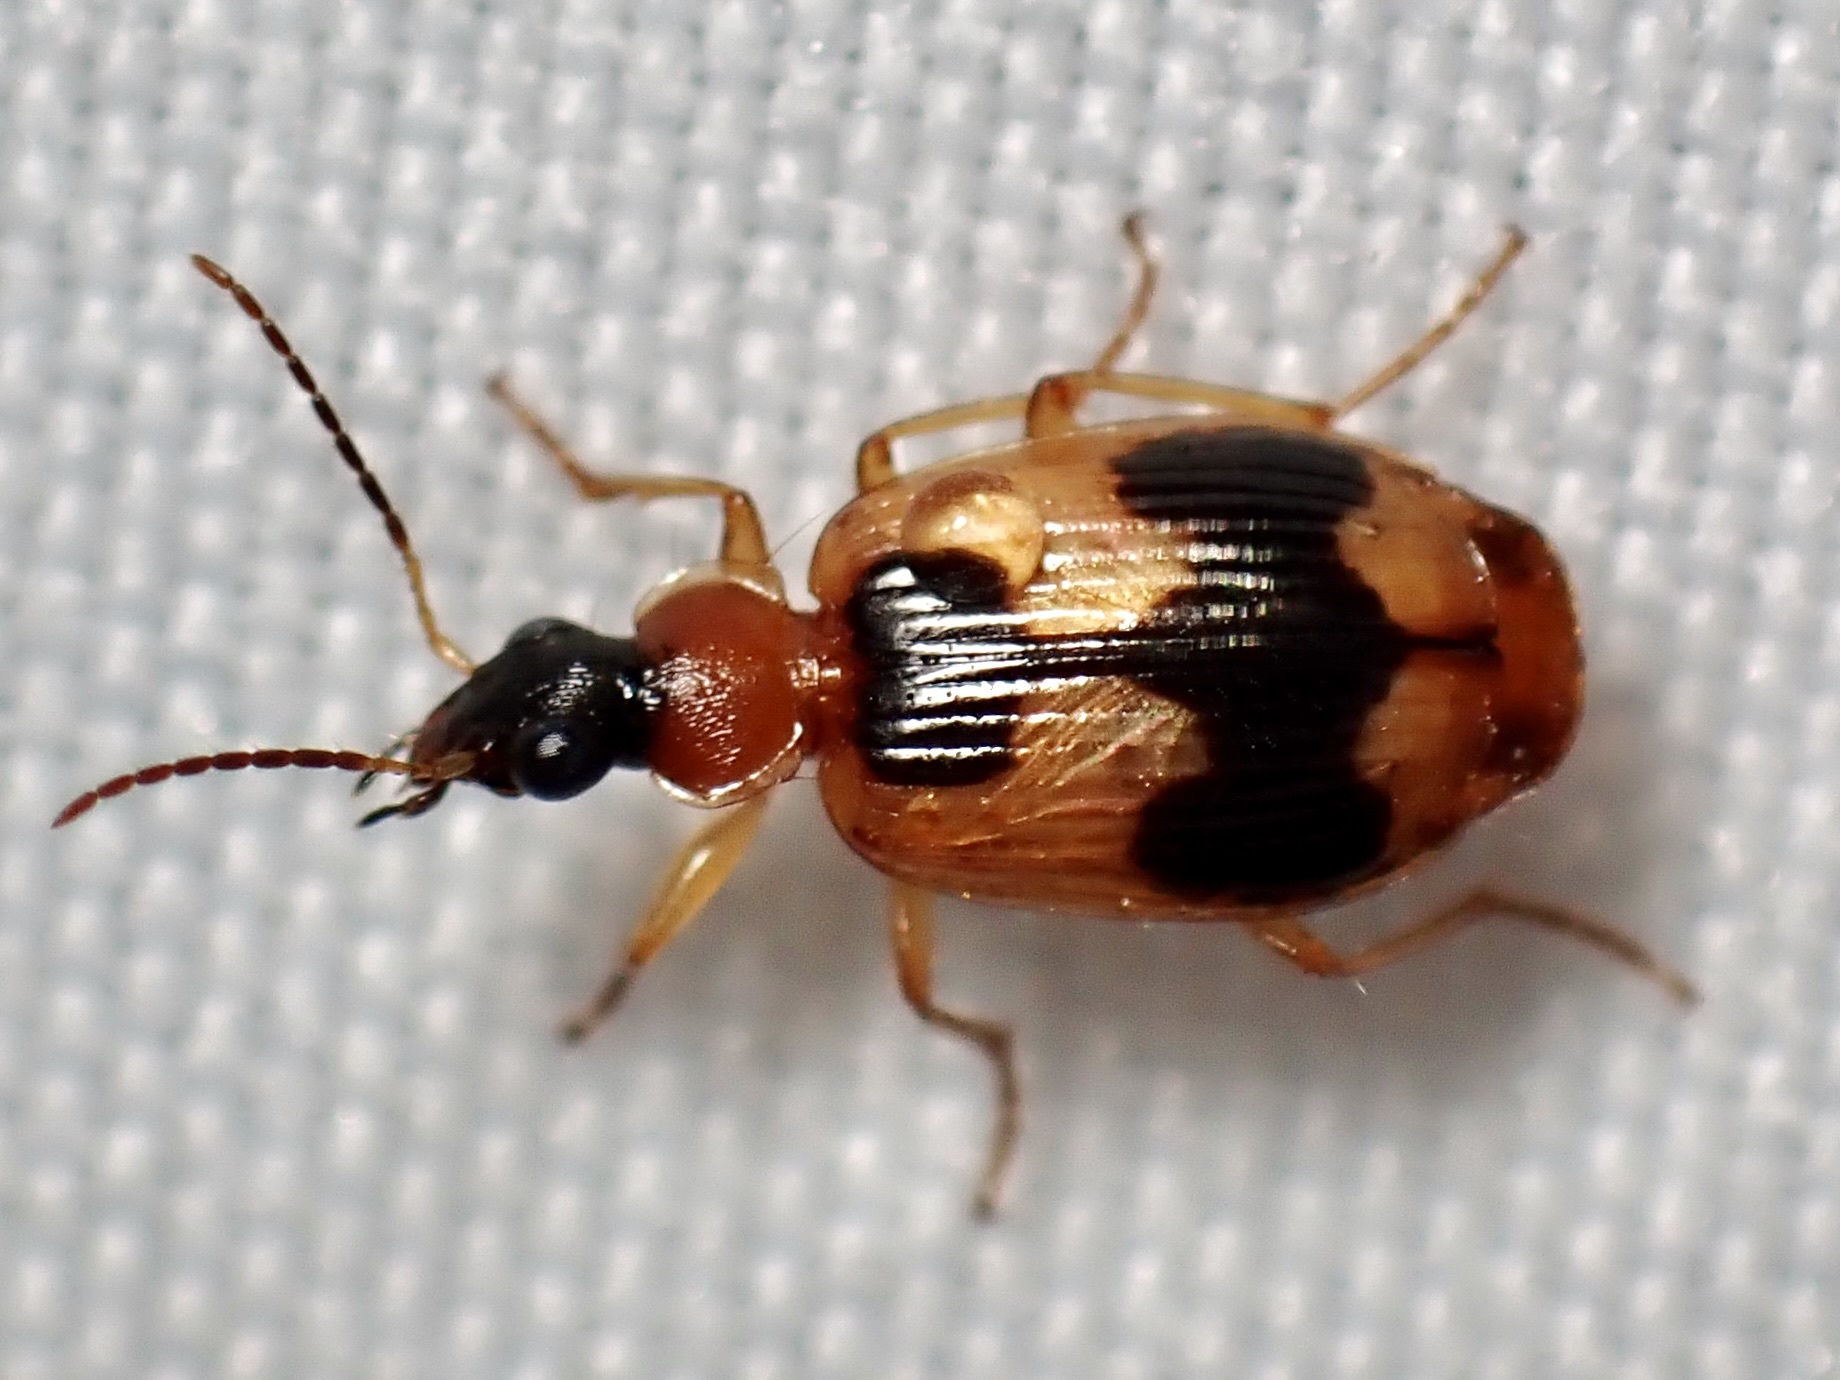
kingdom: Animalia
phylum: Arthropoda
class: Insecta
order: Coleoptera
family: Carabidae
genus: Lebia
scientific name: Lebia analis
